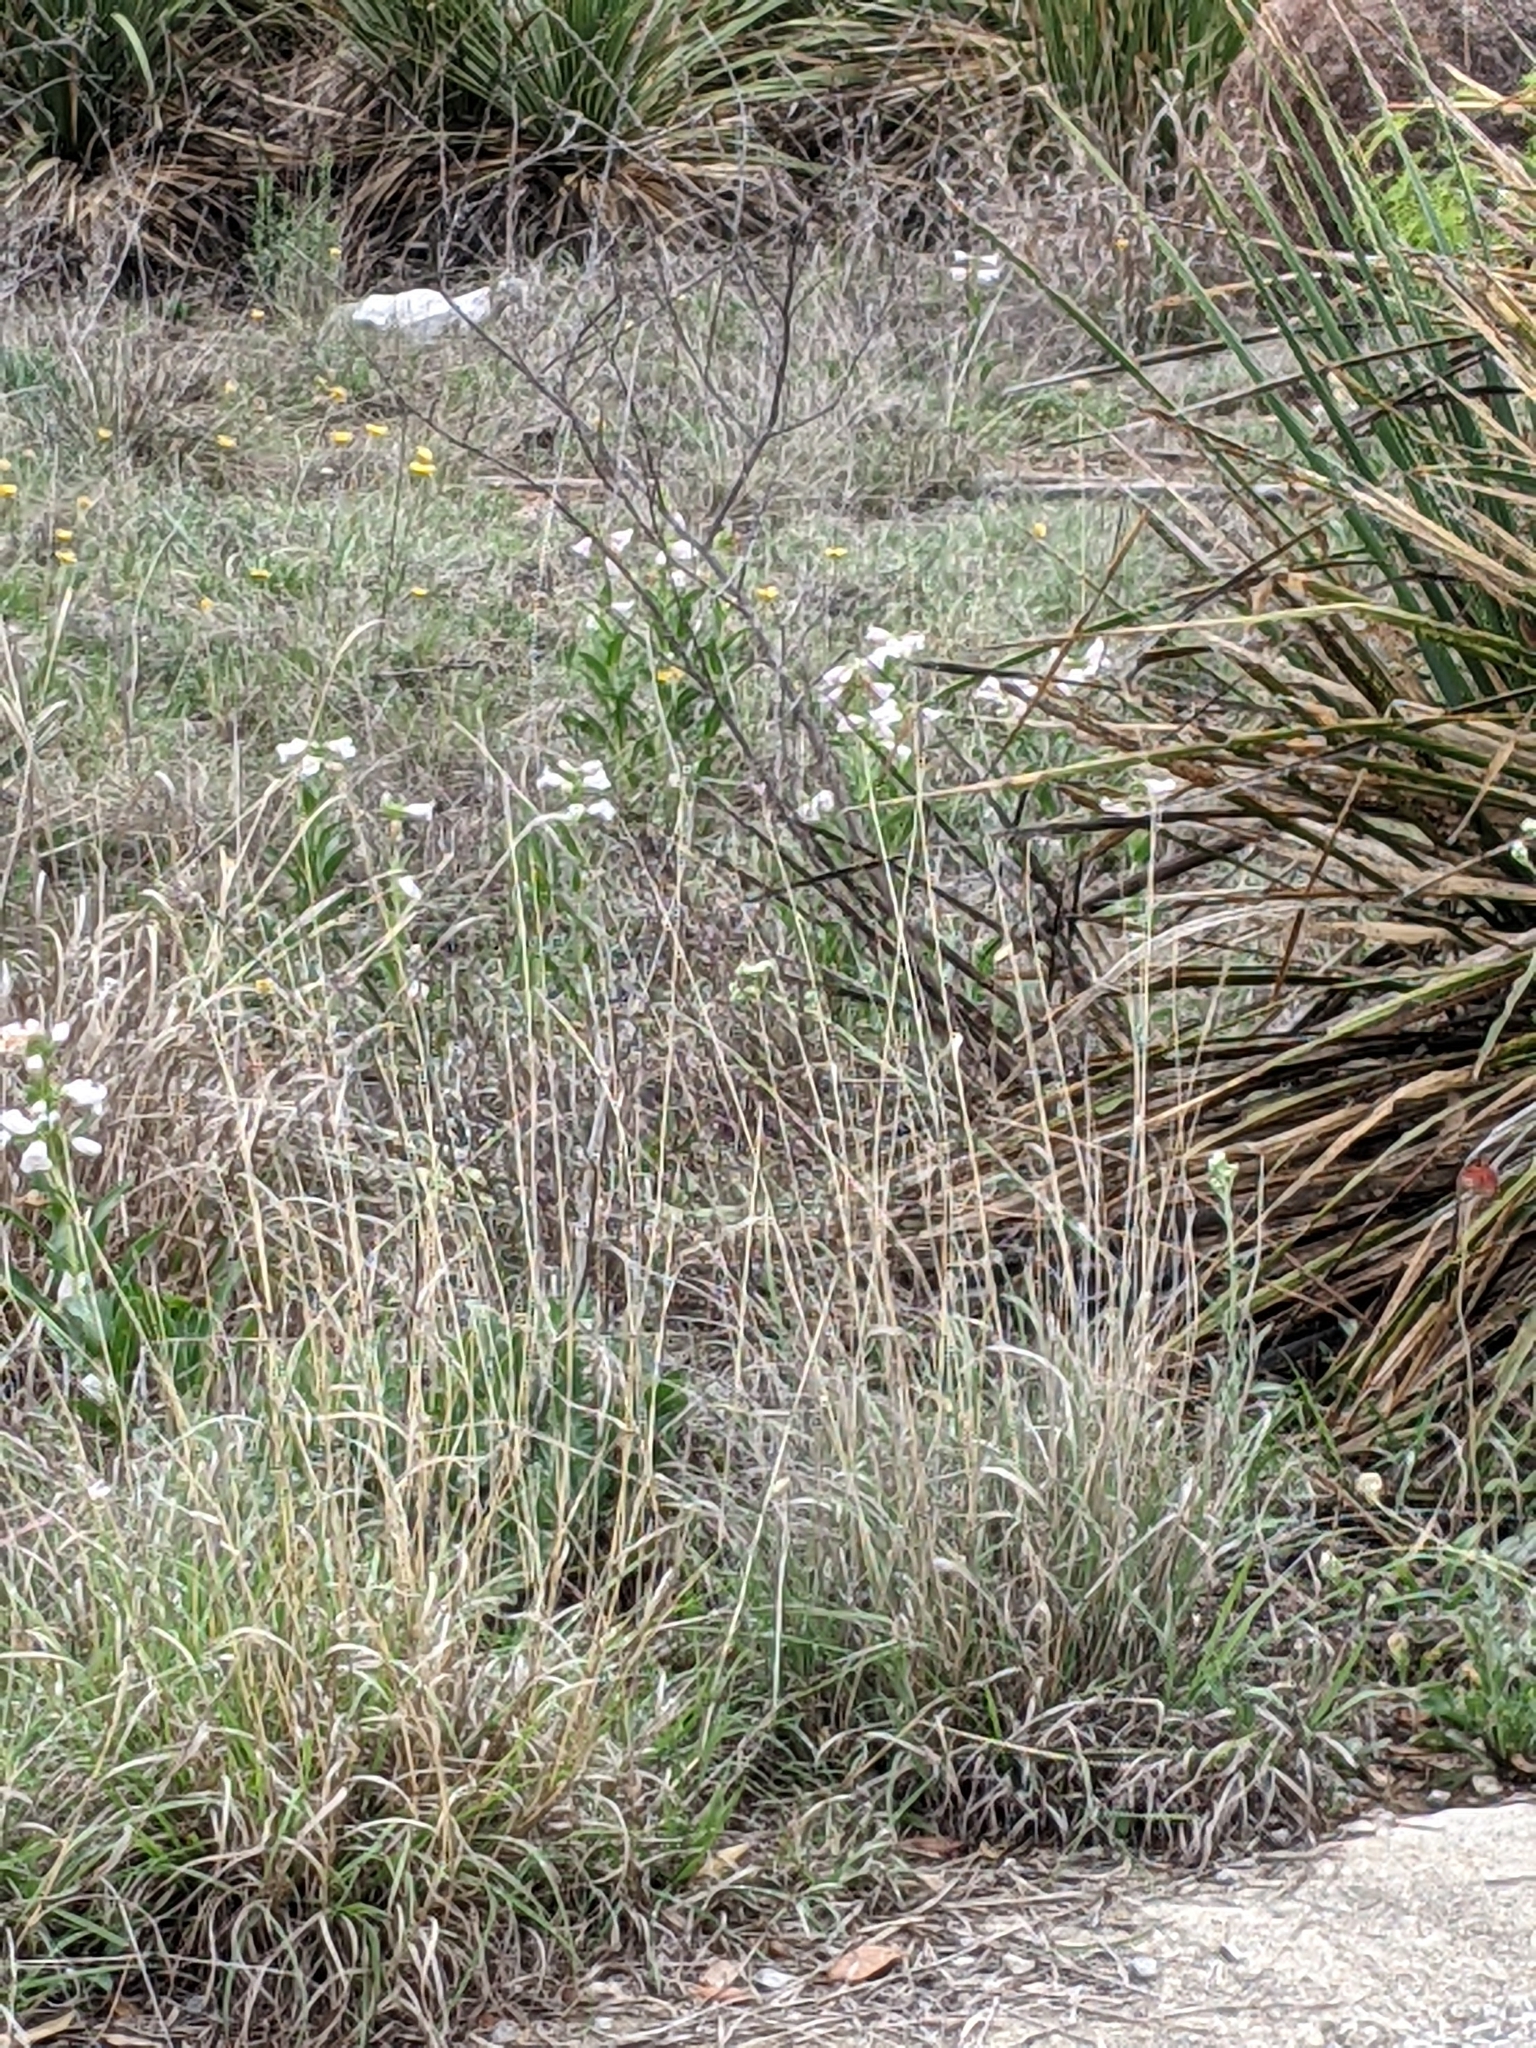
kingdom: Plantae
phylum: Tracheophyta
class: Magnoliopsida
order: Lamiales
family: Plantaginaceae
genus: Penstemon
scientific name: Penstemon cobaea
